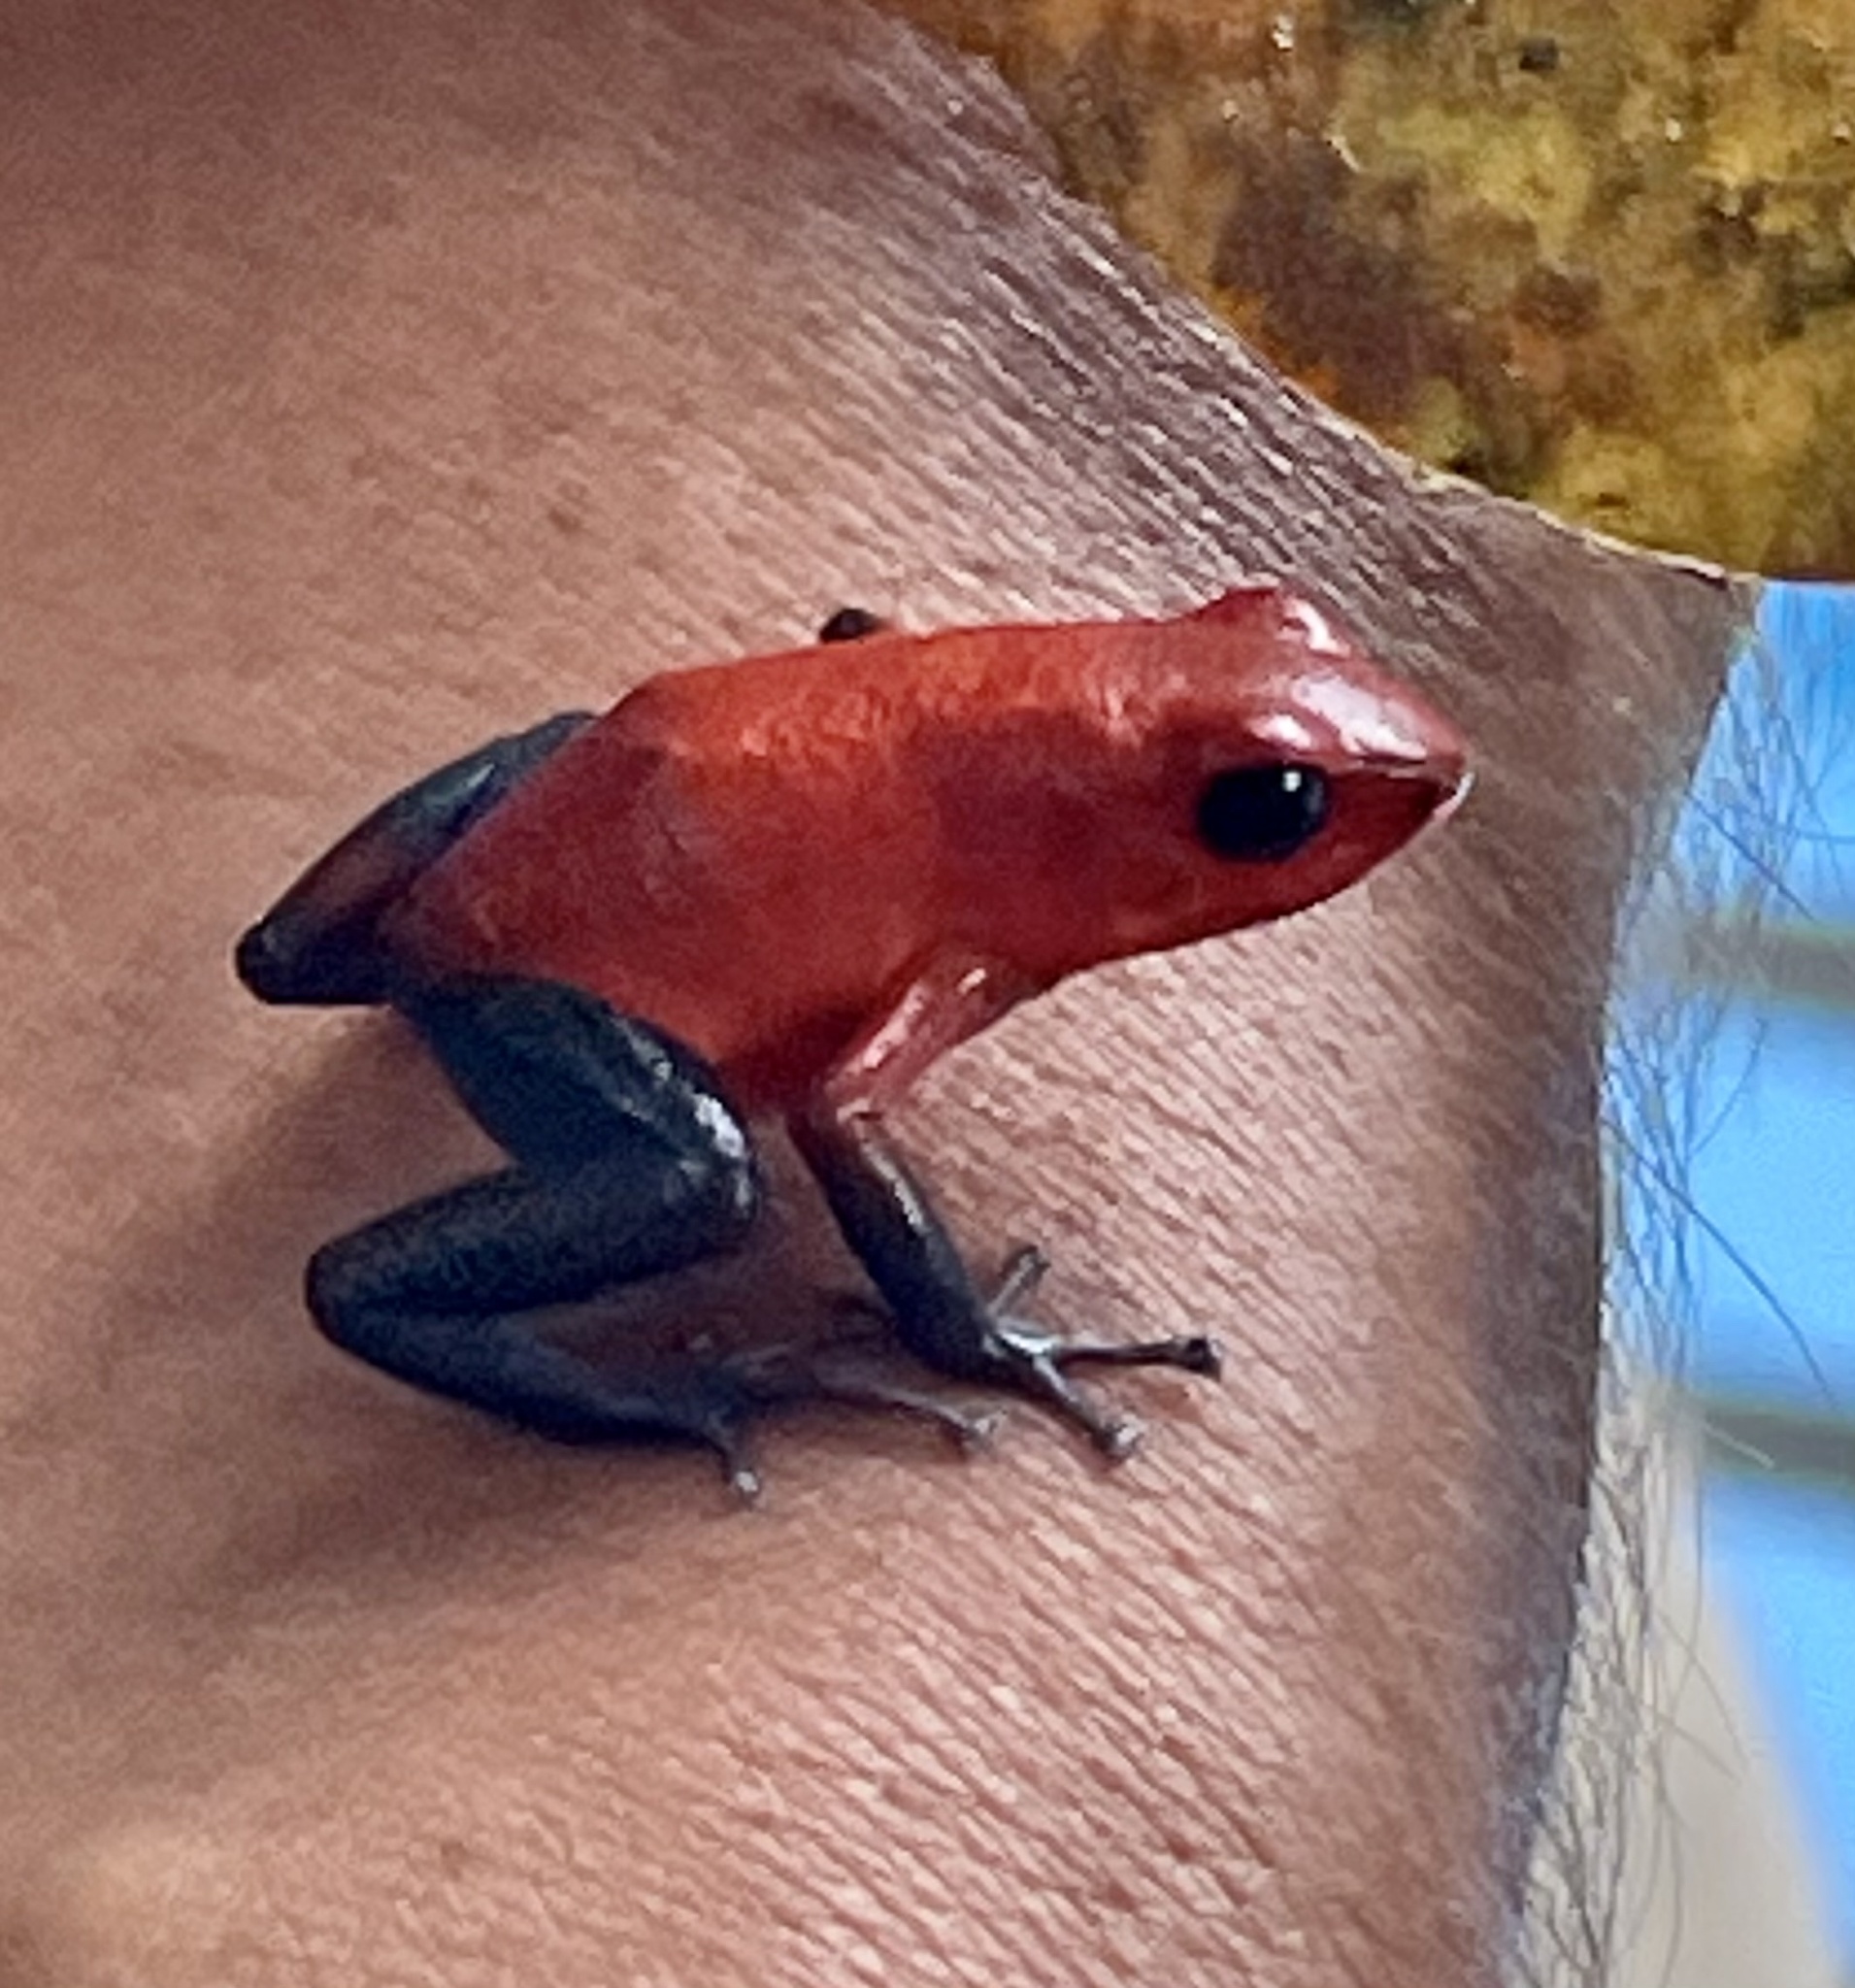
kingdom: Animalia
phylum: Chordata
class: Amphibia
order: Anura
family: Dendrobatidae
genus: Oophaga
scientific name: Oophaga pumilio
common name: Flaming poison frog
